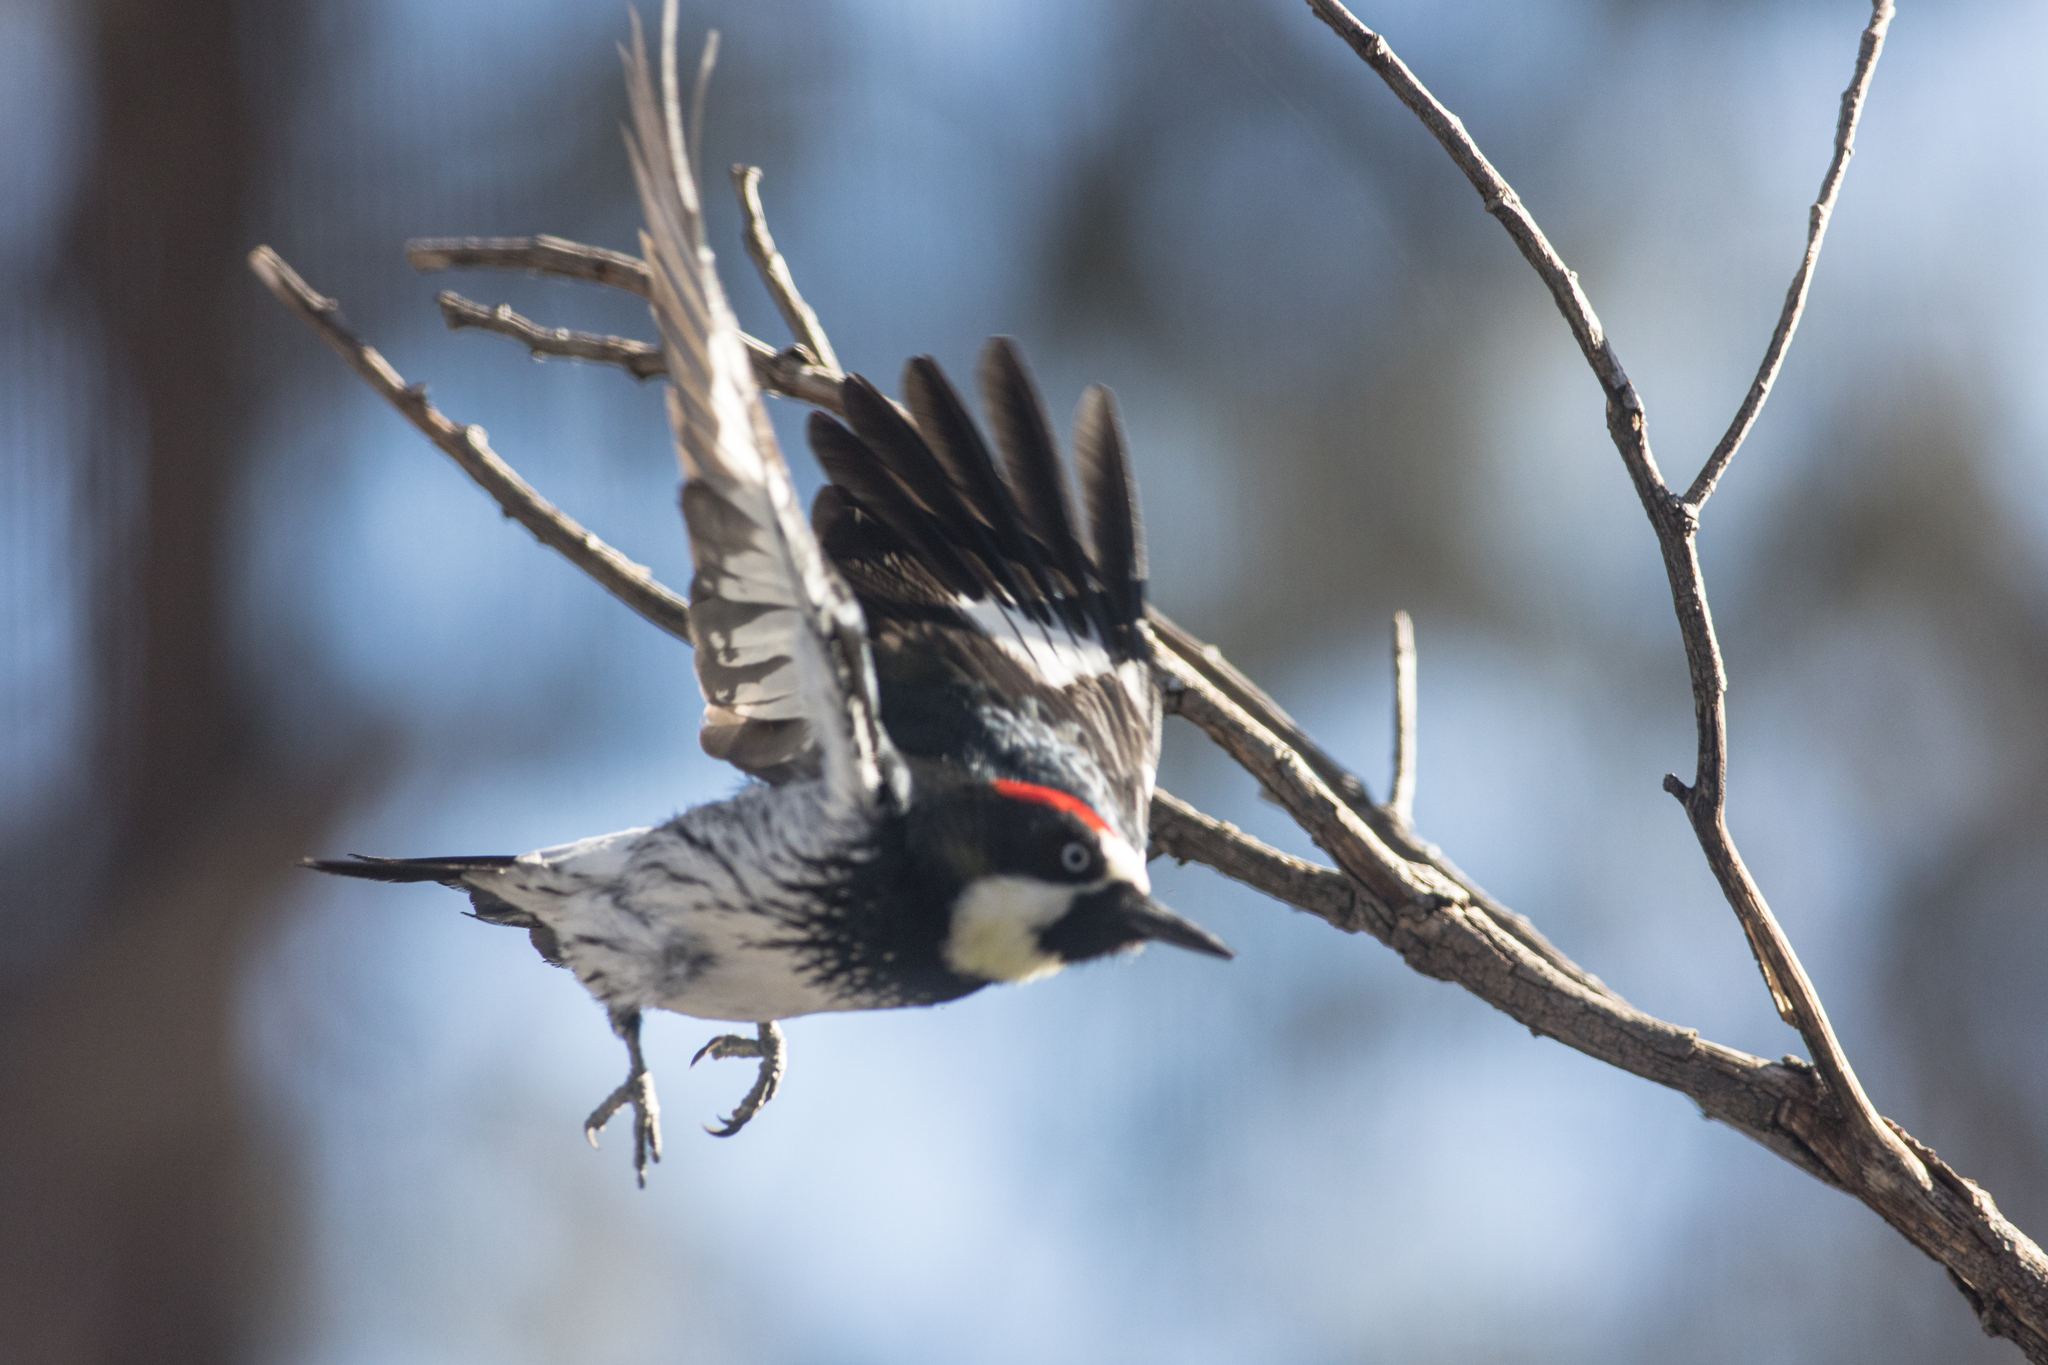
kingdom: Animalia
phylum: Chordata
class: Aves
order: Piciformes
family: Picidae
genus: Melanerpes
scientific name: Melanerpes formicivorus
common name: Acorn woodpecker
